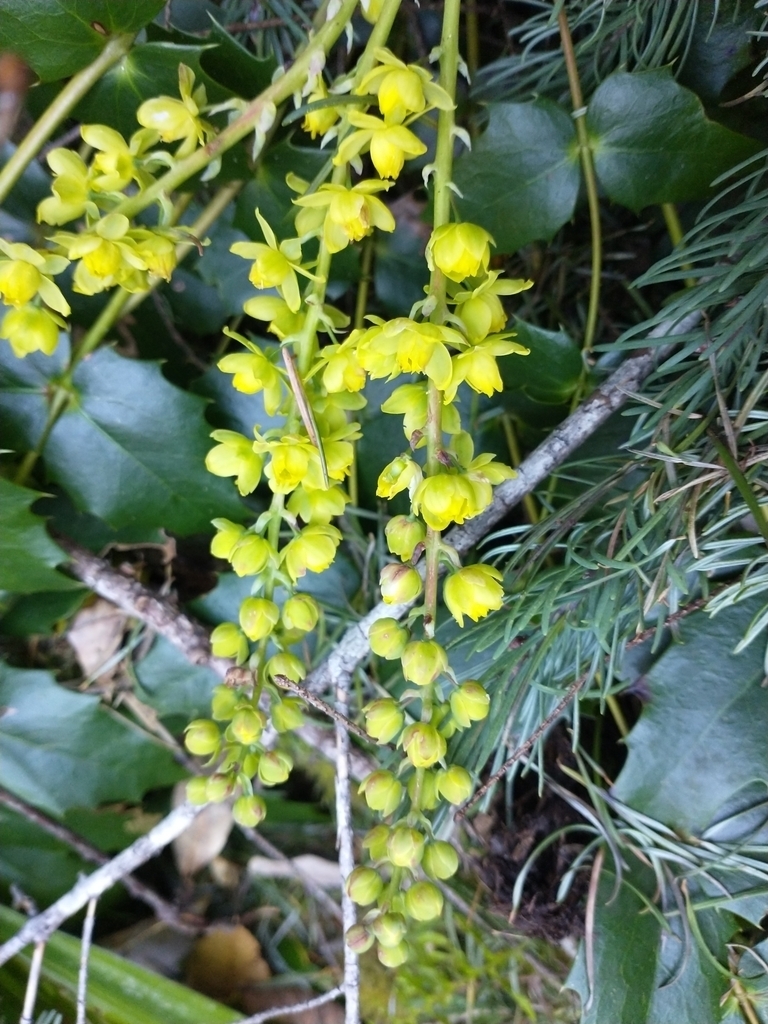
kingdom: Plantae
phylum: Tracheophyta
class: Magnoliopsida
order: Ranunculales
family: Berberidaceae
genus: Mahonia
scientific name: Mahonia nervosa
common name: Cascade oregon-grape
